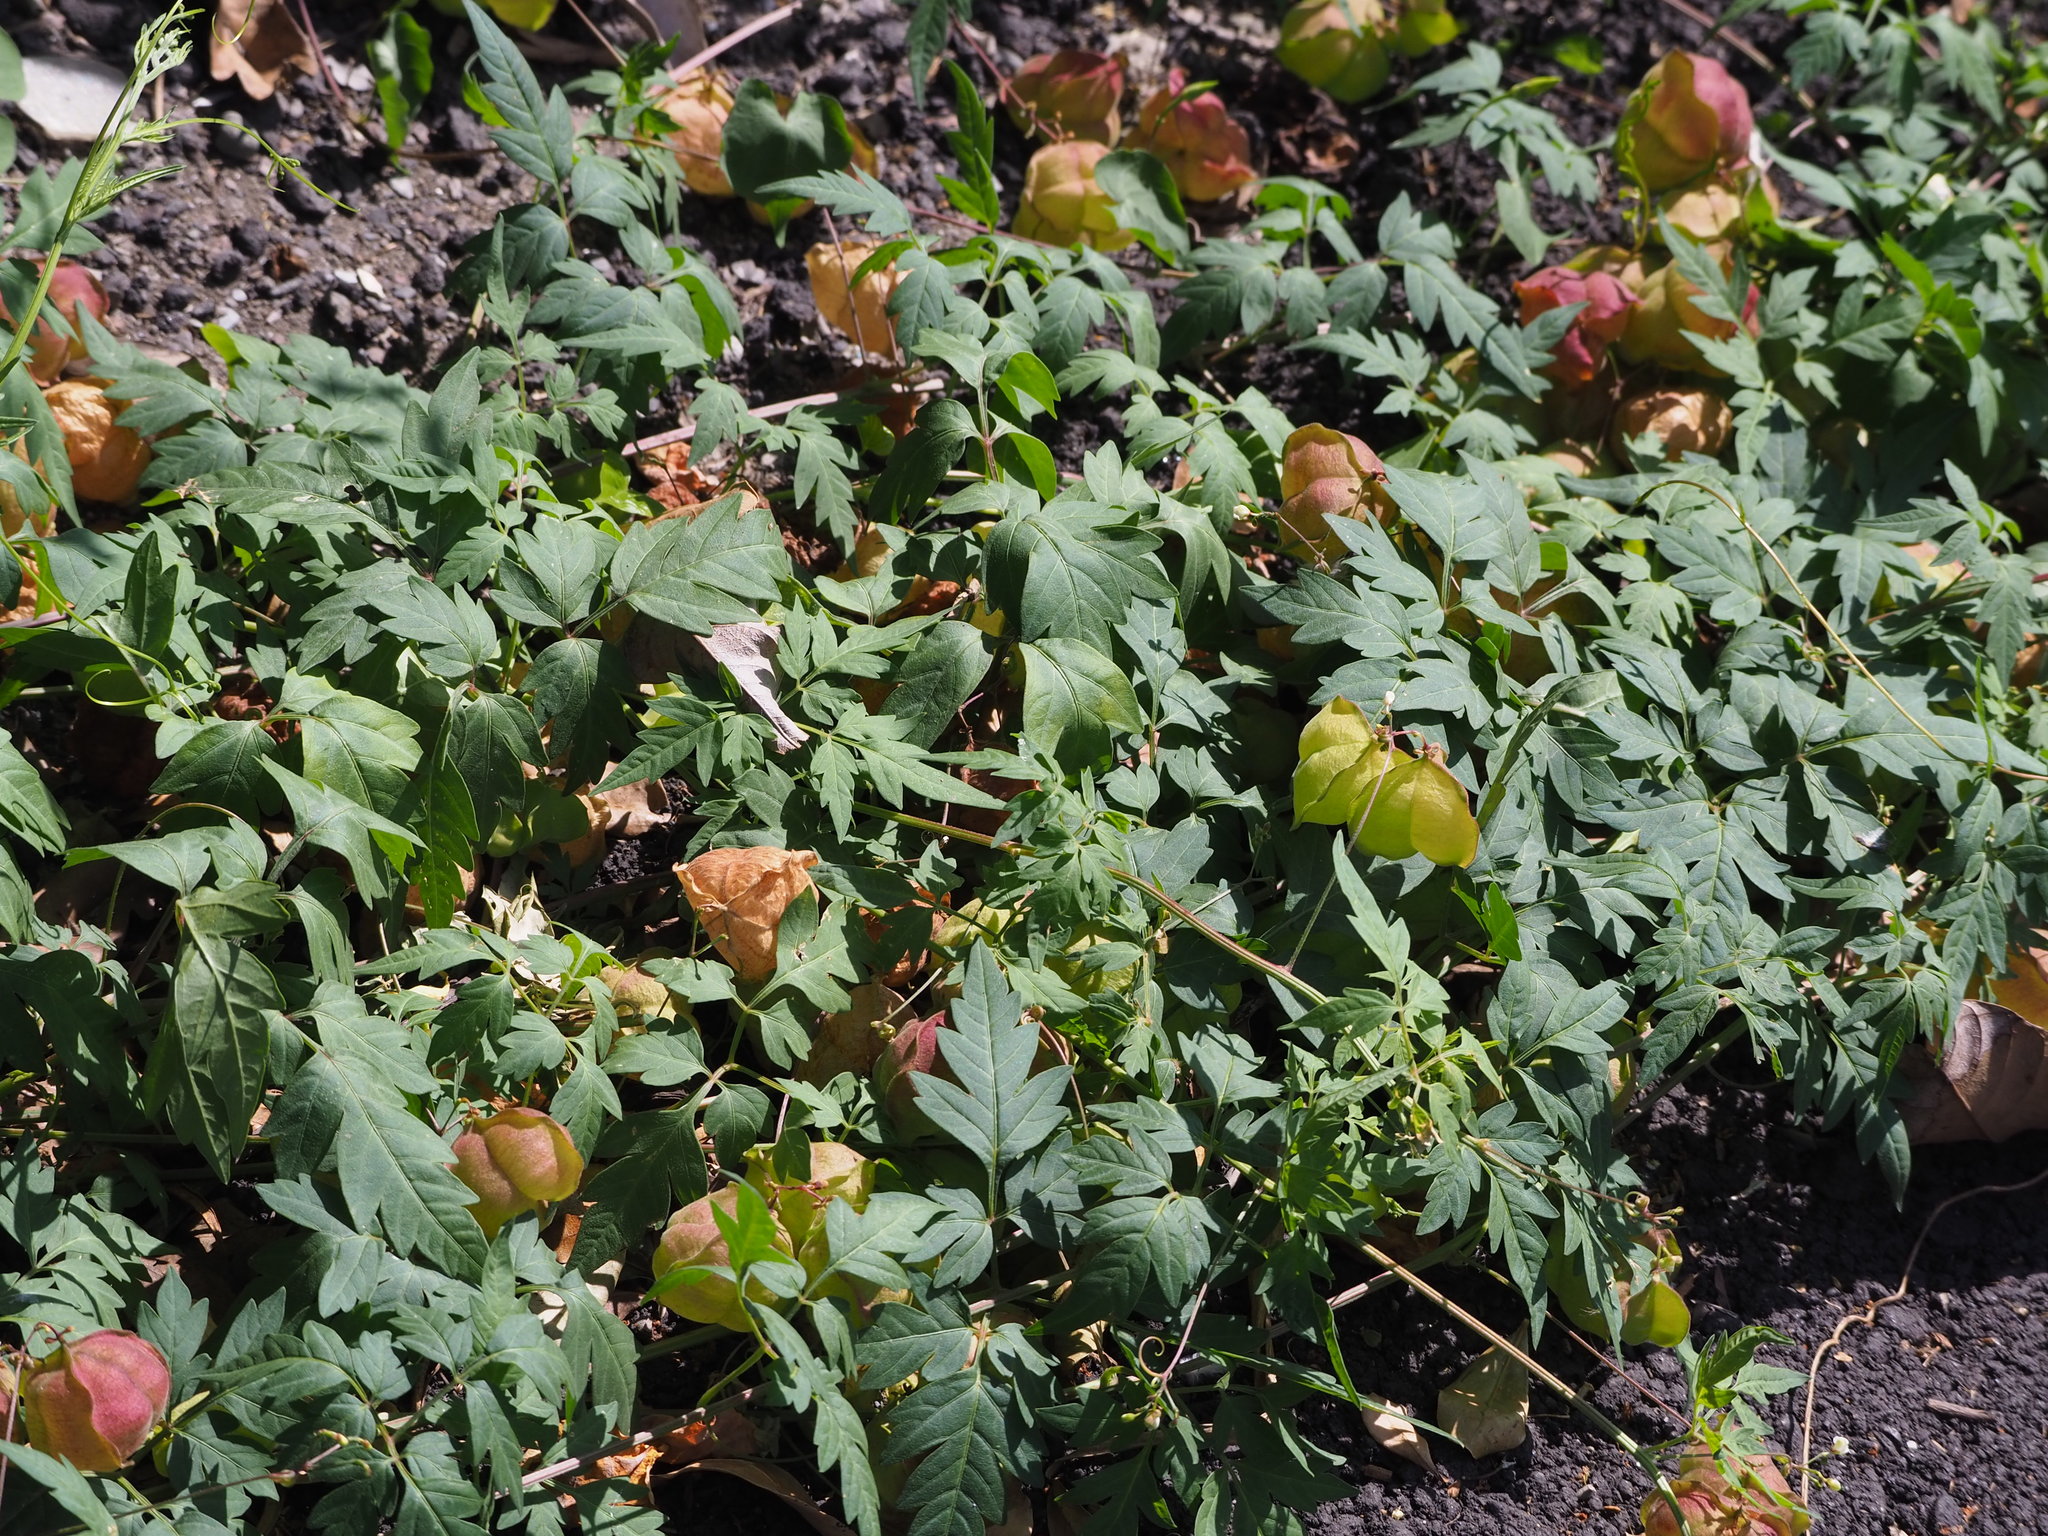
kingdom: Plantae
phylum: Tracheophyta
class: Magnoliopsida
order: Sapindales
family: Sapindaceae
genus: Cardiospermum
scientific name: Cardiospermum halicacabum
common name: Balloon vine
